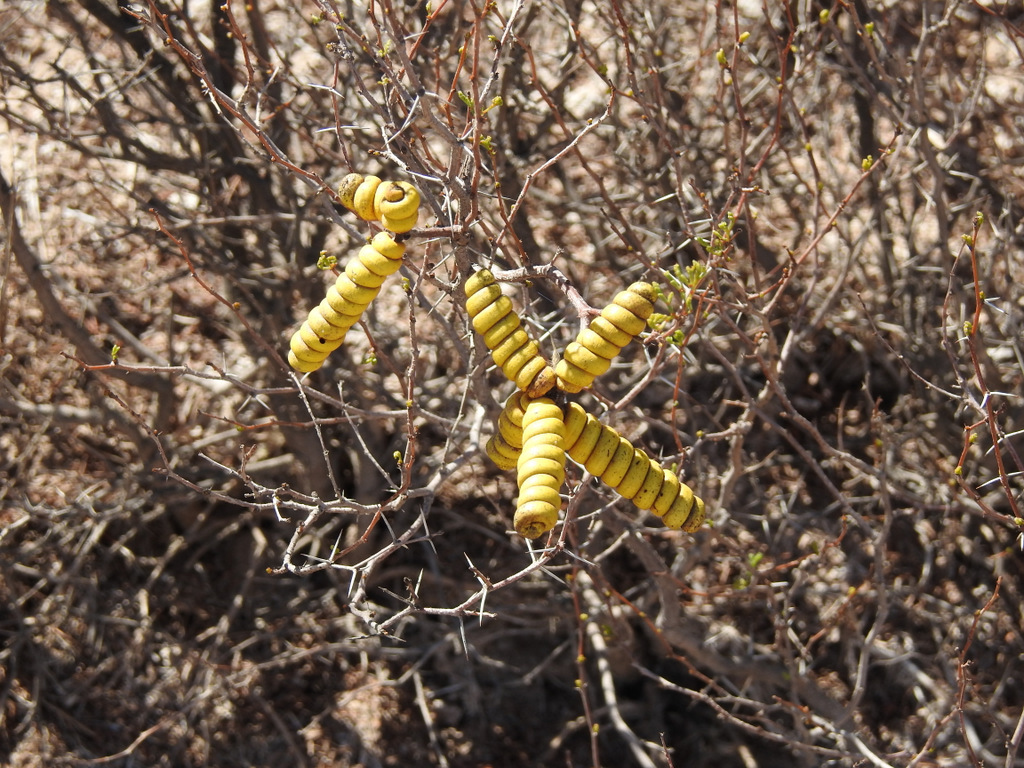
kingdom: Plantae
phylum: Tracheophyta
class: Magnoliopsida
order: Fabales
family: Fabaceae
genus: Prosopis
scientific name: Prosopis strombulifera
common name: Creeping mesquite
